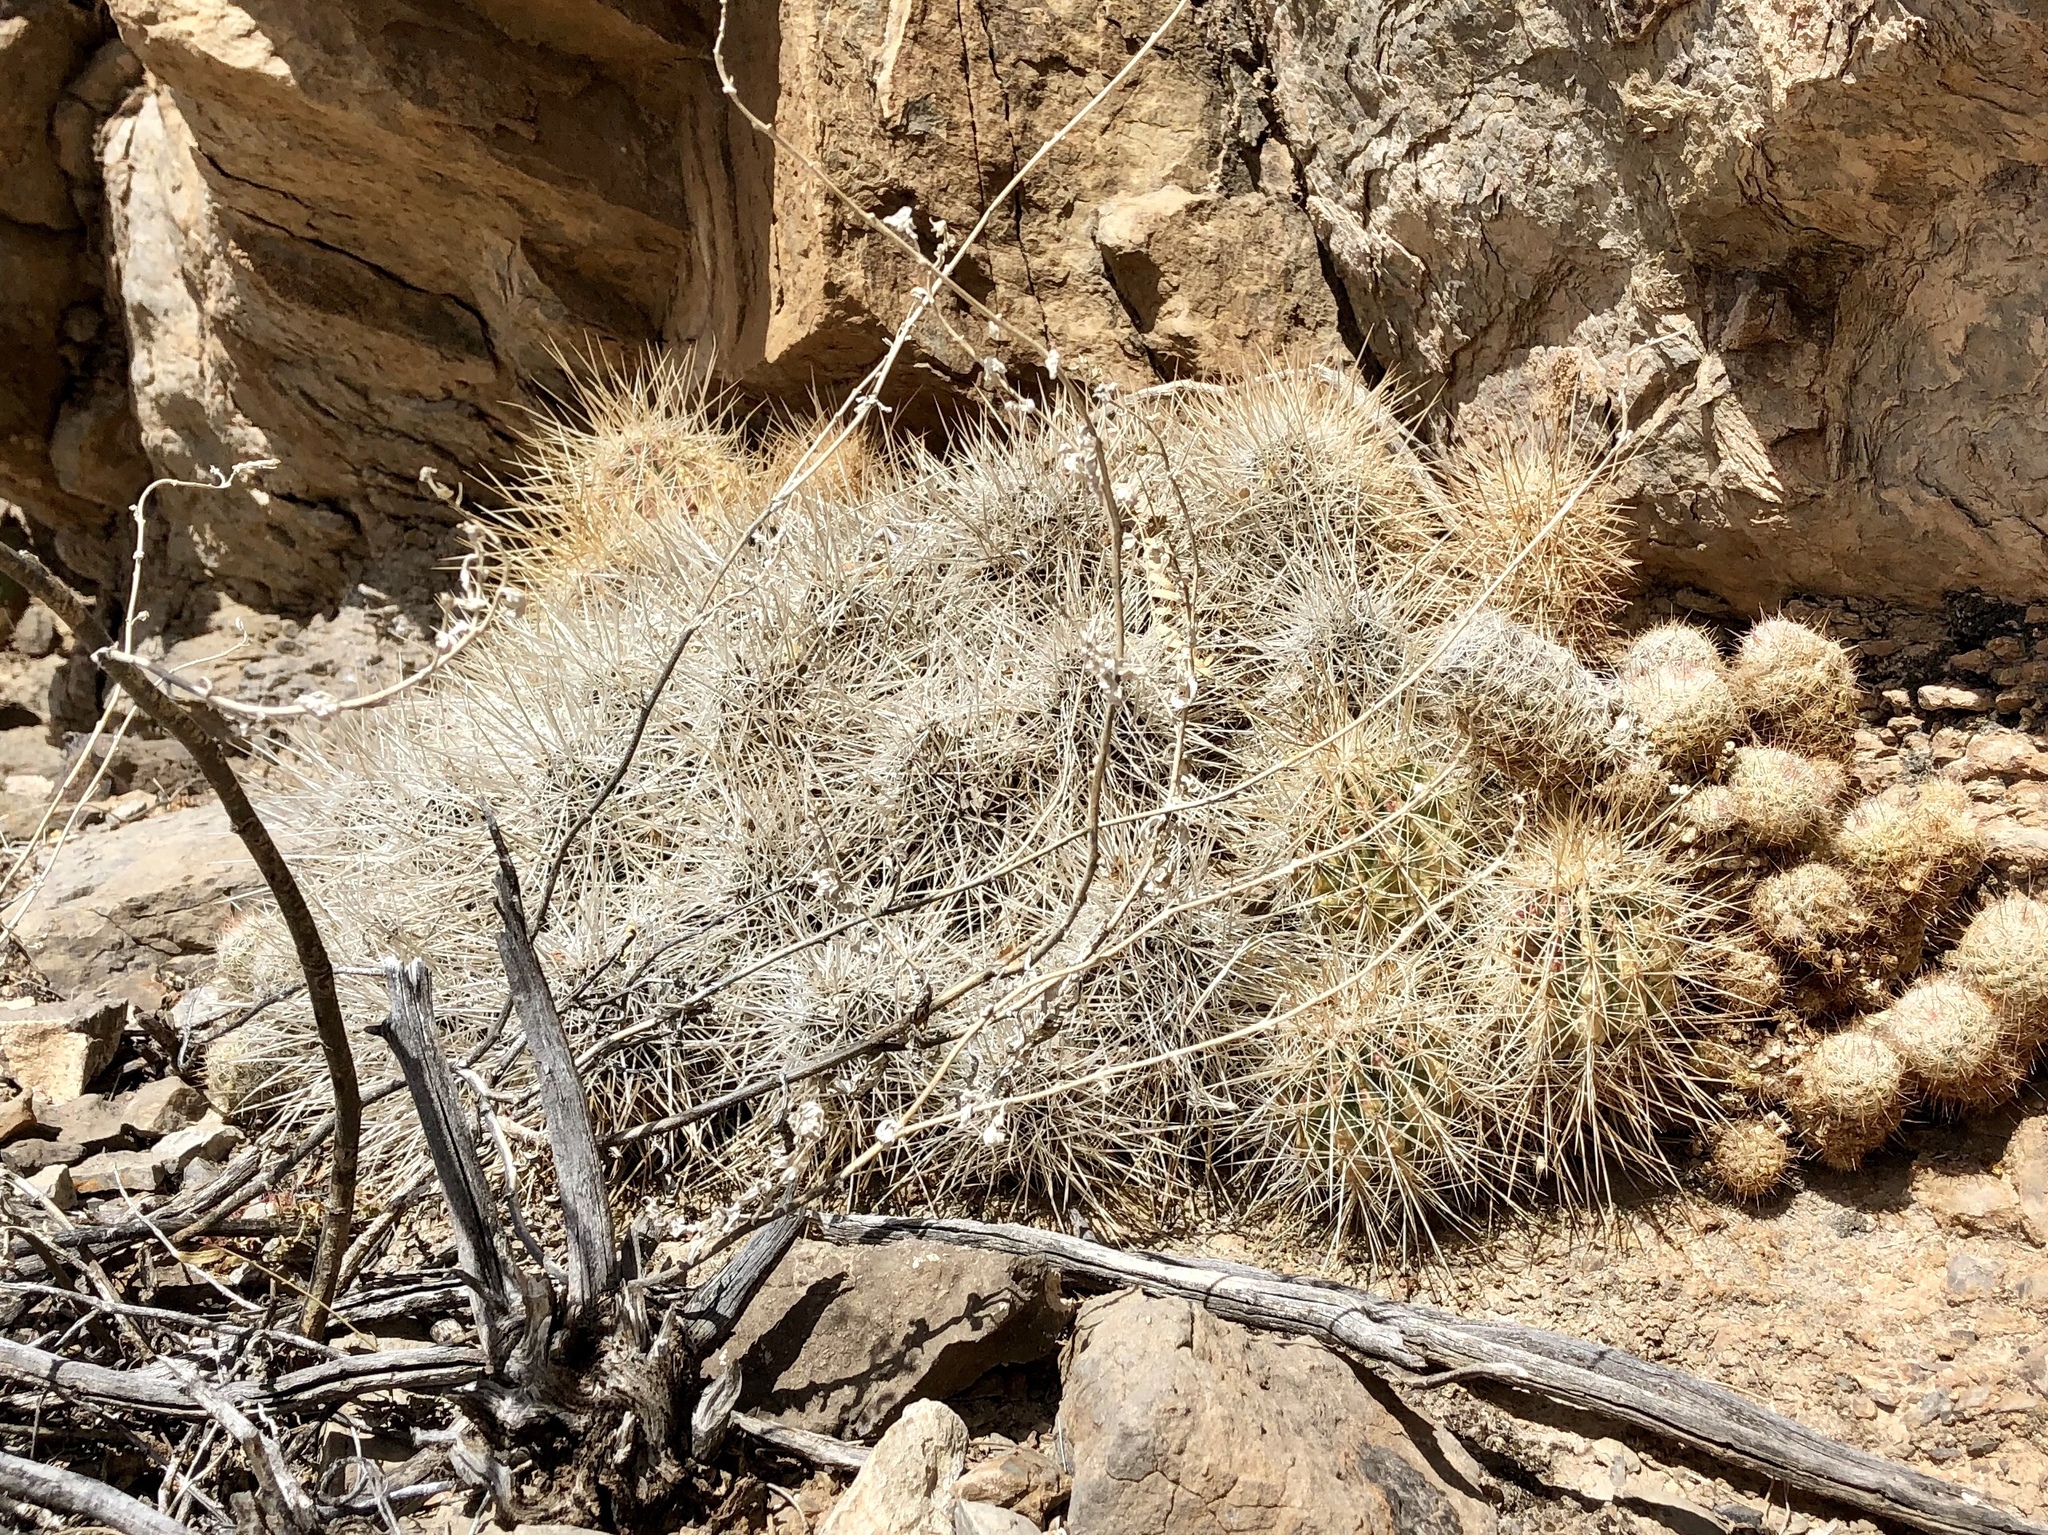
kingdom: Plantae
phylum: Tracheophyta
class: Magnoliopsida
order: Caryophyllales
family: Cactaceae
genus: Echinocereus
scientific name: Echinocereus stramineus
